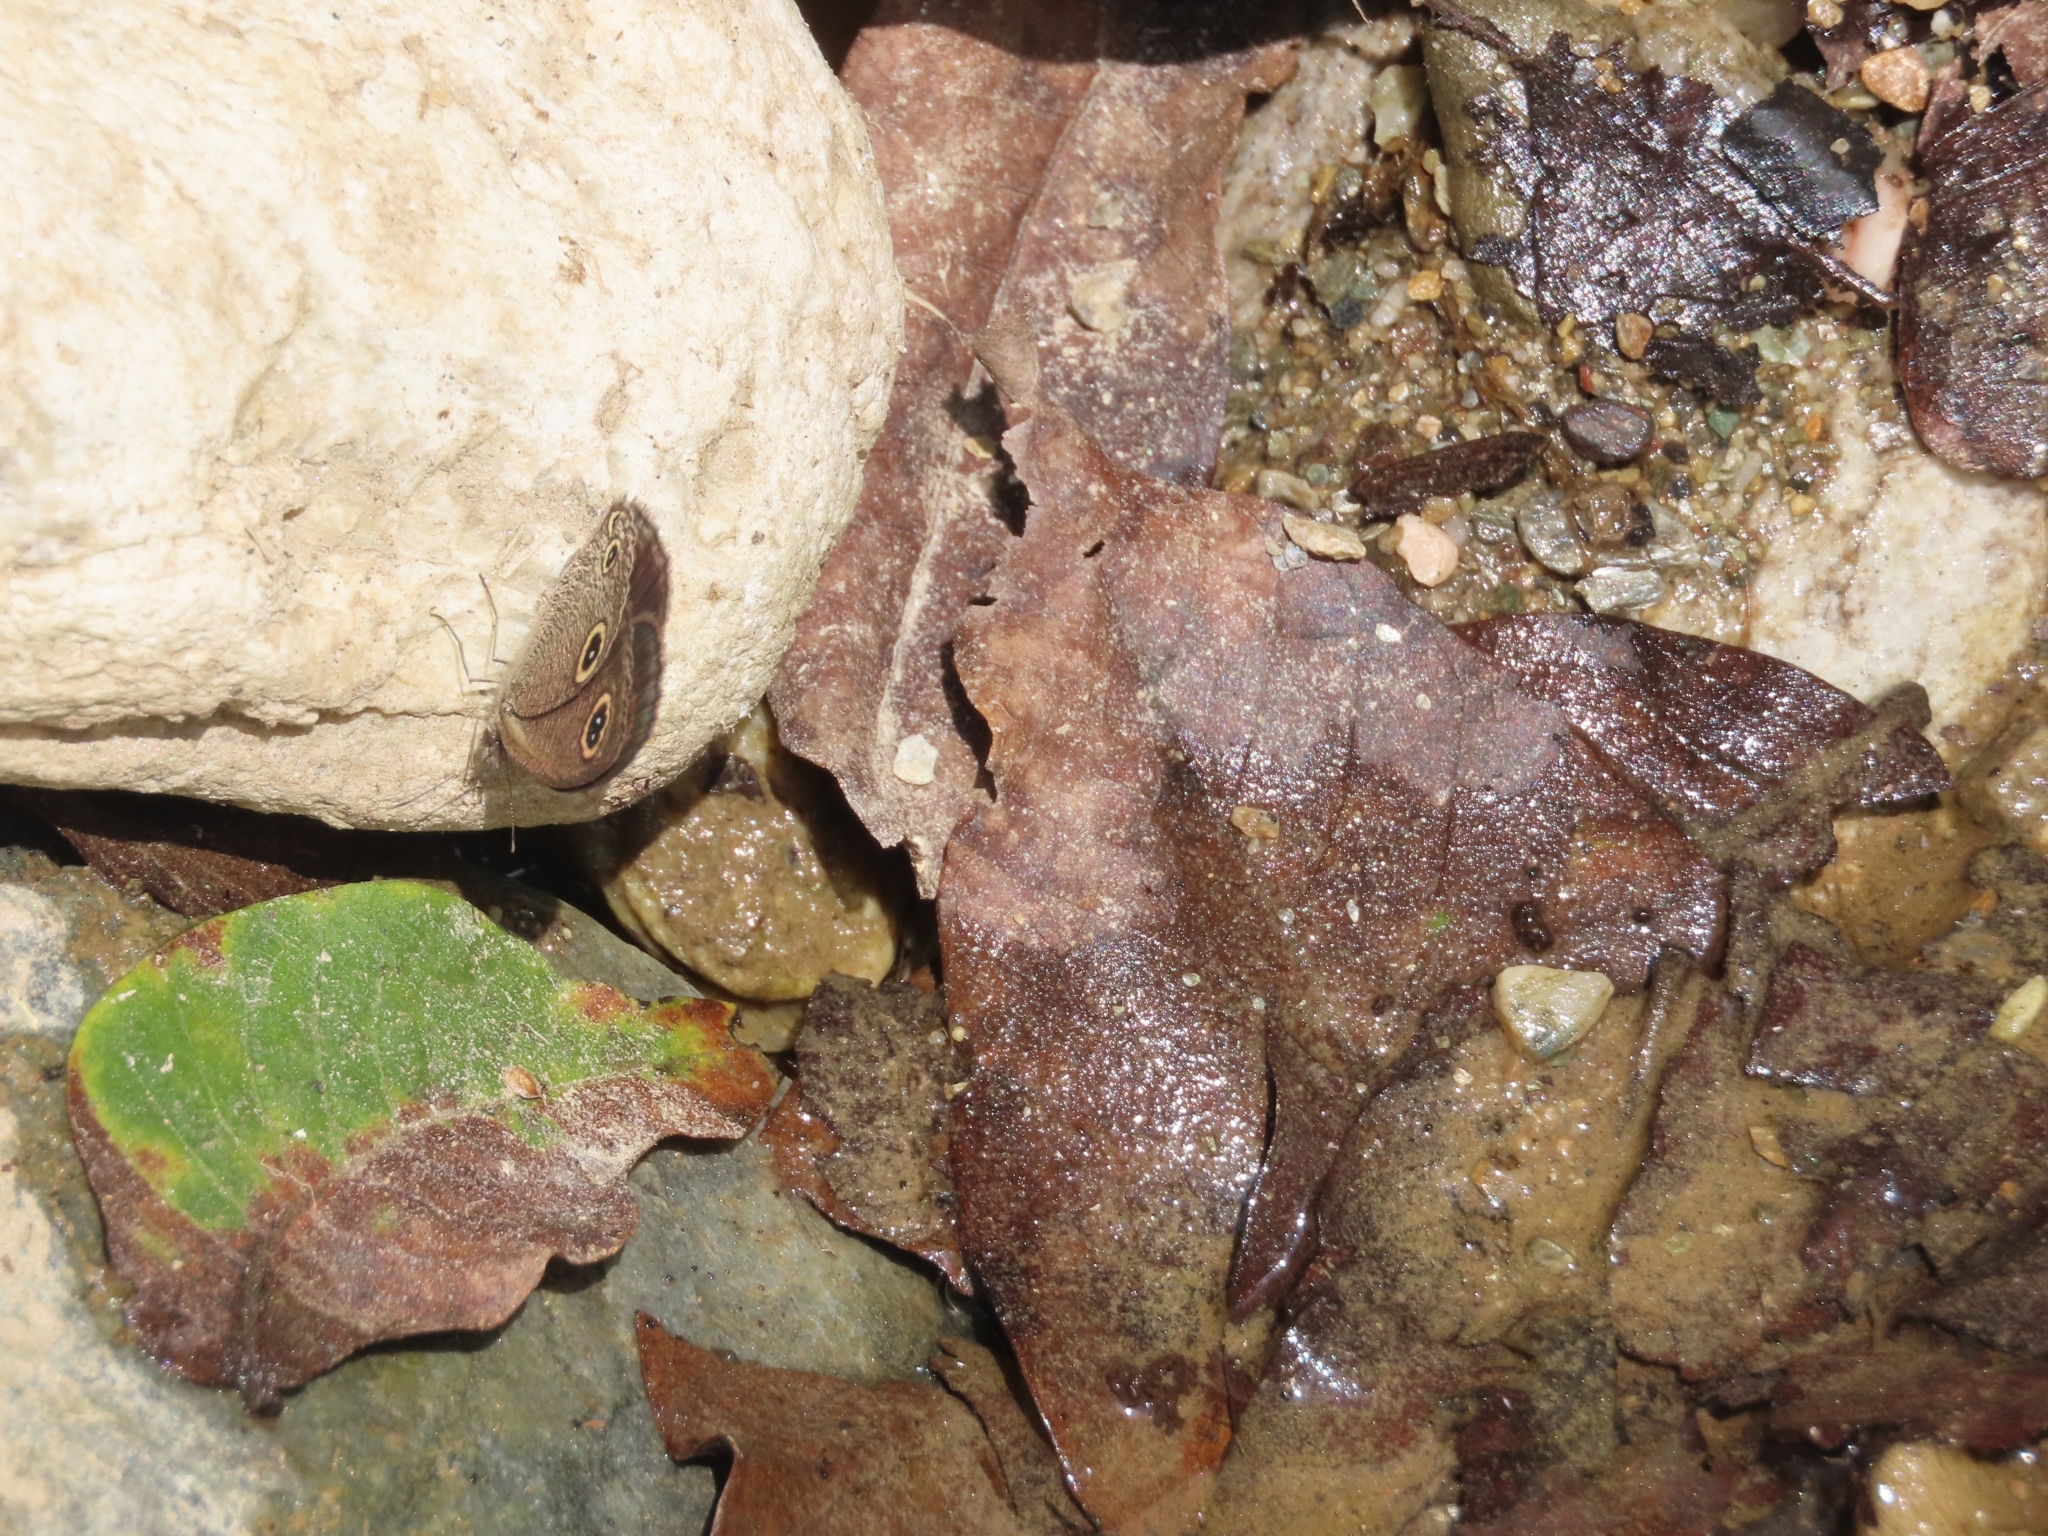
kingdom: Animalia
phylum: Arthropoda
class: Insecta
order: Lepidoptera
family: Nymphalidae
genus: Ypthima
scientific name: Ypthima nareda
